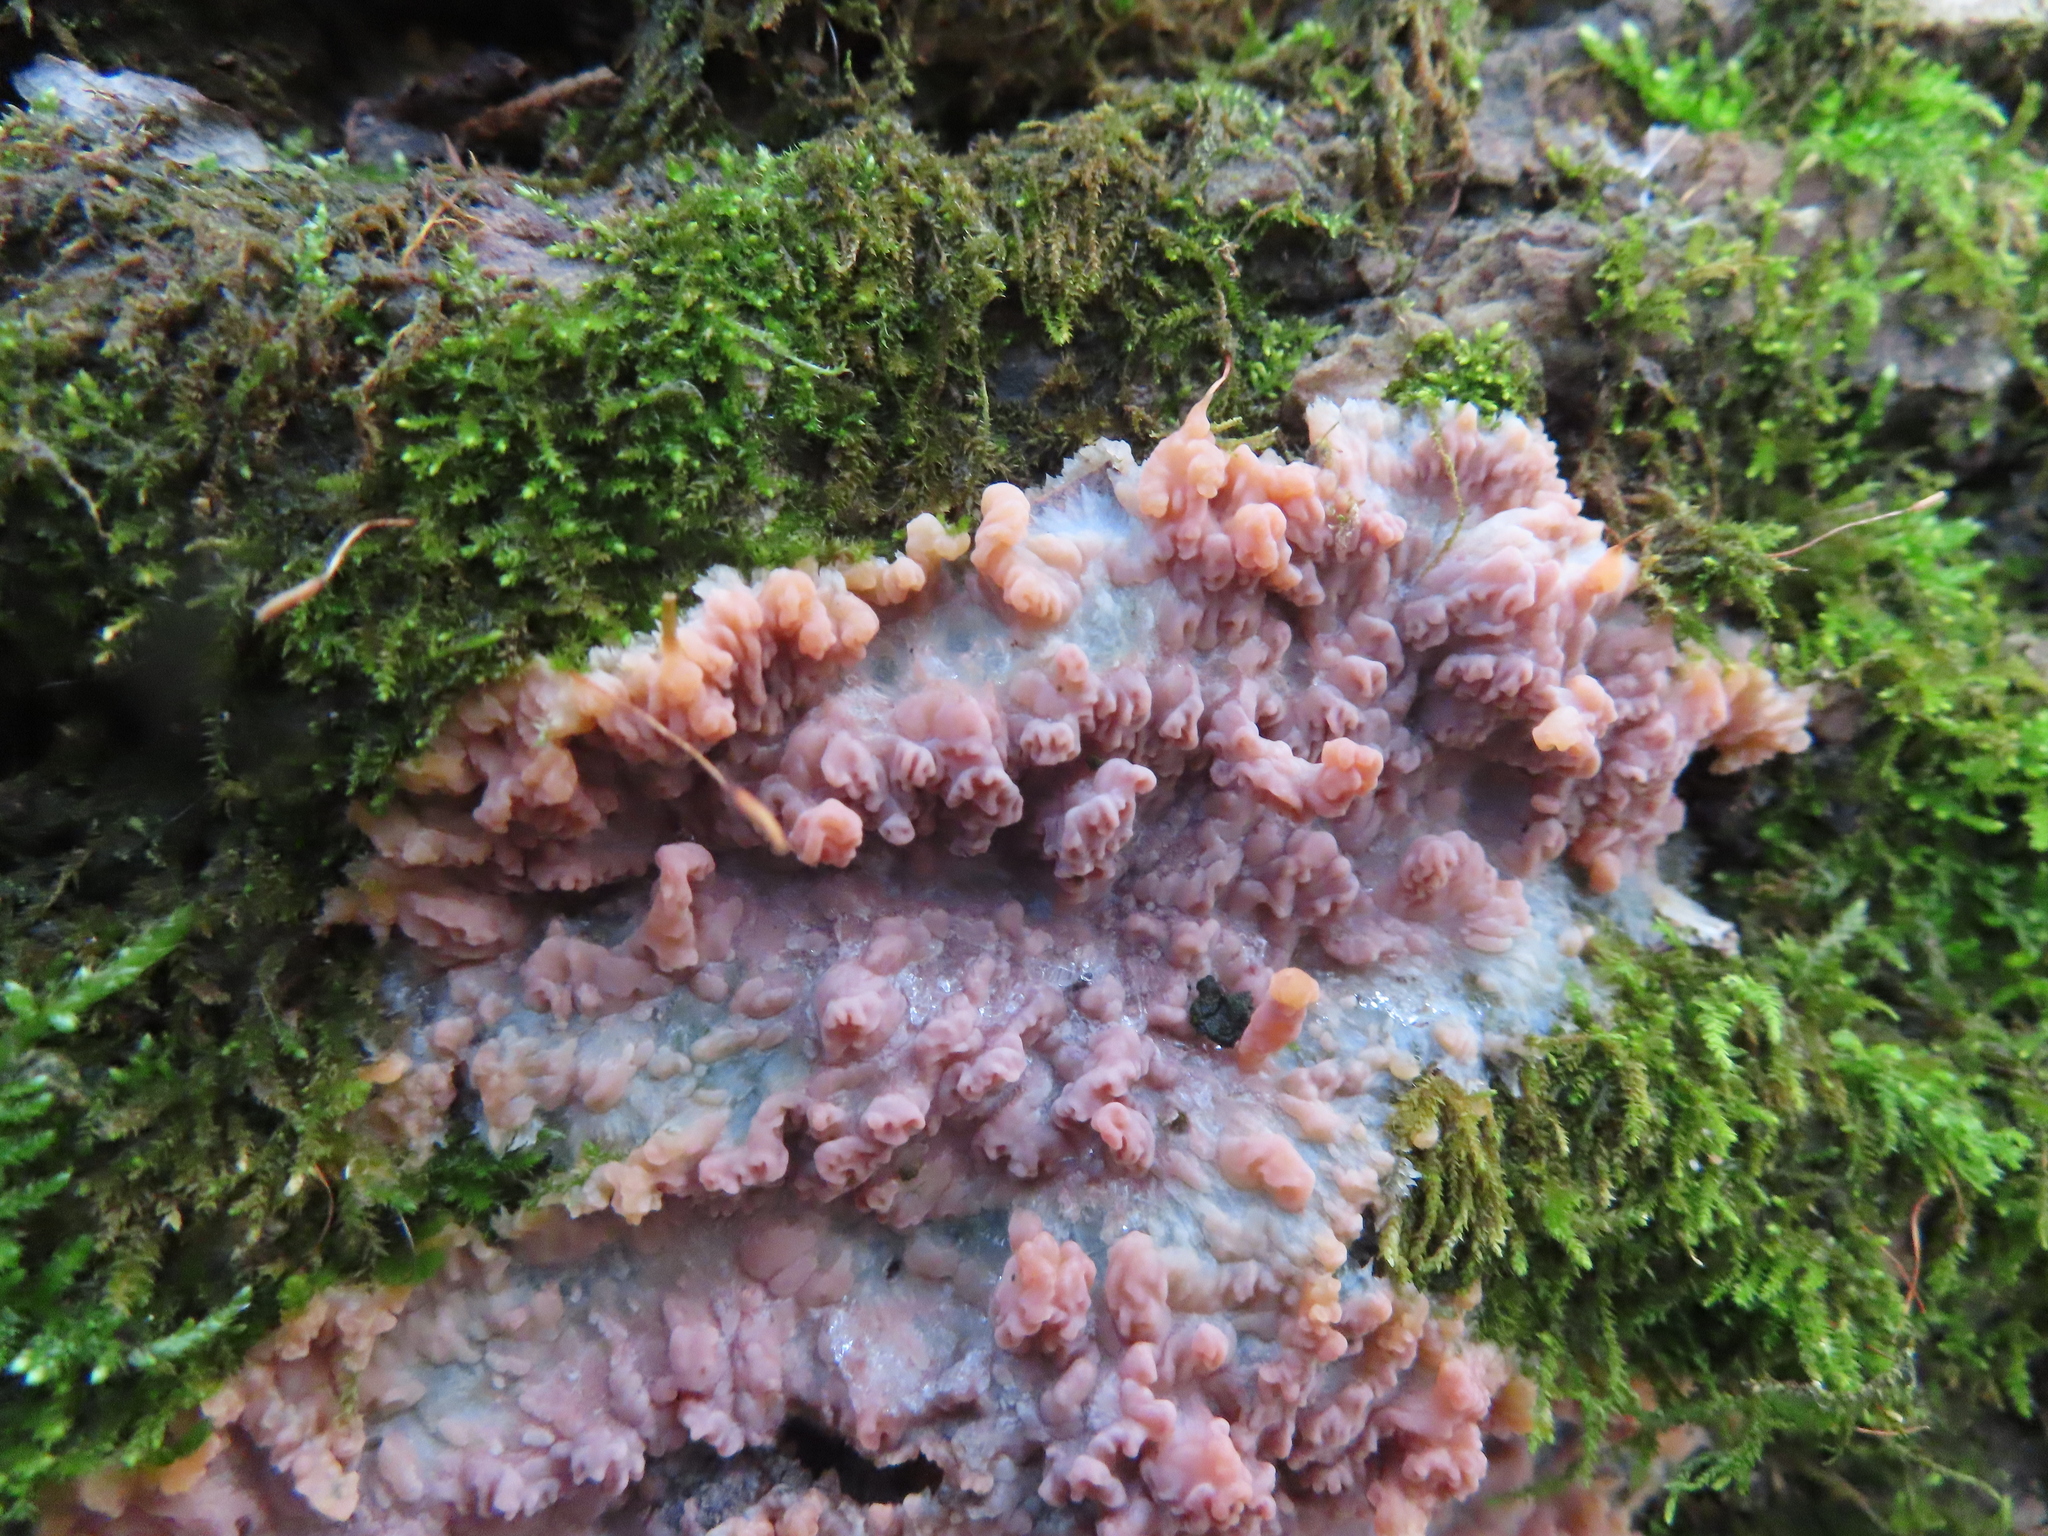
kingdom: Fungi
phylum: Basidiomycota
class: Agaricomycetes
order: Polyporales
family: Meruliaceae
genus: Phlebia
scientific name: Phlebia radiata
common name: Wrinkled crust
